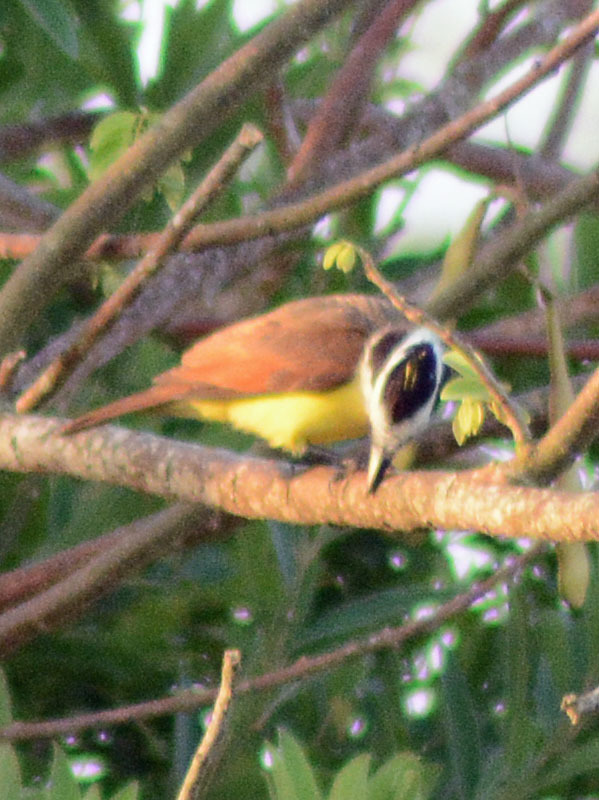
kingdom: Animalia
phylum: Chordata
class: Aves
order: Passeriformes
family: Tyrannidae
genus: Pitangus
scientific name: Pitangus sulphuratus
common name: Great kiskadee
